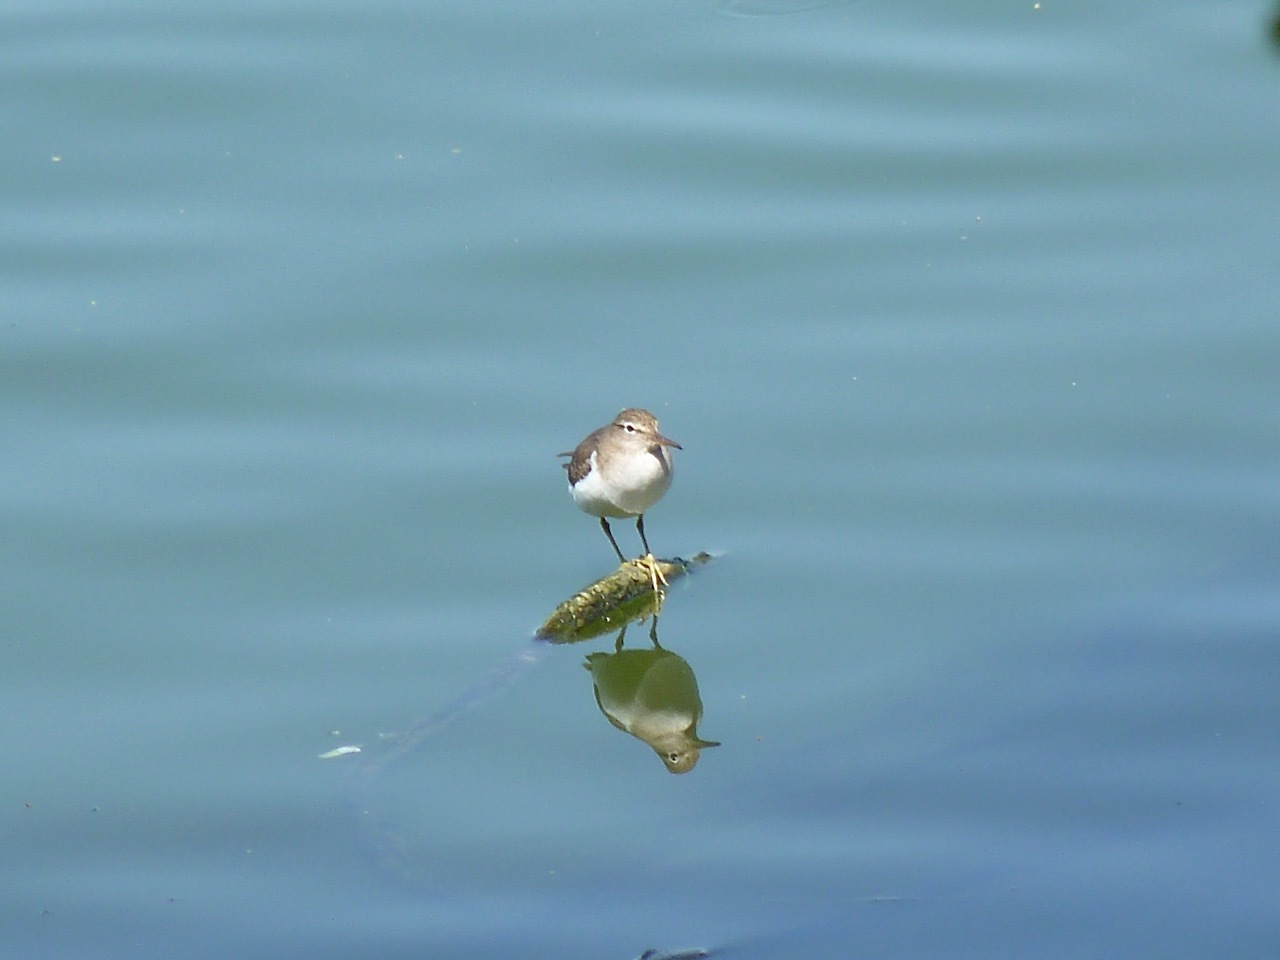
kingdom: Animalia
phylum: Chordata
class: Aves
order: Charadriiformes
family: Scolopacidae
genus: Actitis
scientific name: Actitis macularius
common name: Spotted sandpiper
